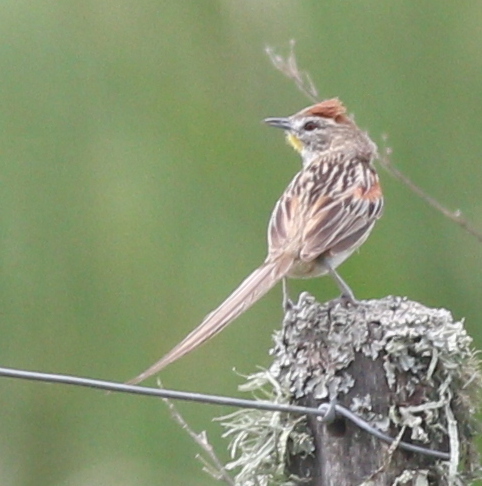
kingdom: Animalia
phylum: Chordata
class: Aves
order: Passeriformes
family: Furnariidae
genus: Schoeniophylax
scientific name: Schoeniophylax phryganophilus
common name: Chotoy spinetail
